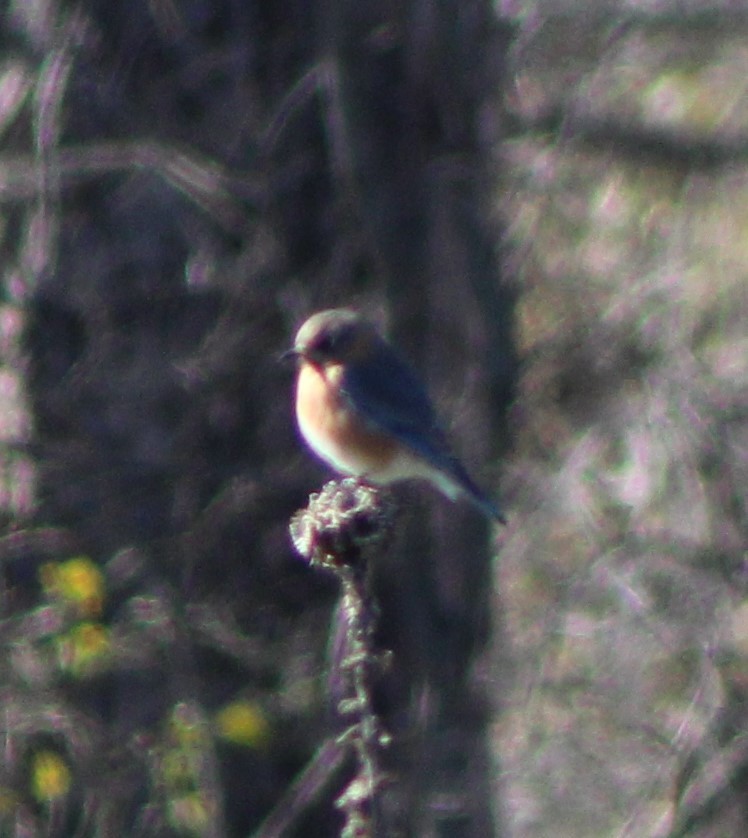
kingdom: Animalia
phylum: Chordata
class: Aves
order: Passeriformes
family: Turdidae
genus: Sialia
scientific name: Sialia sialis
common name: Eastern bluebird
